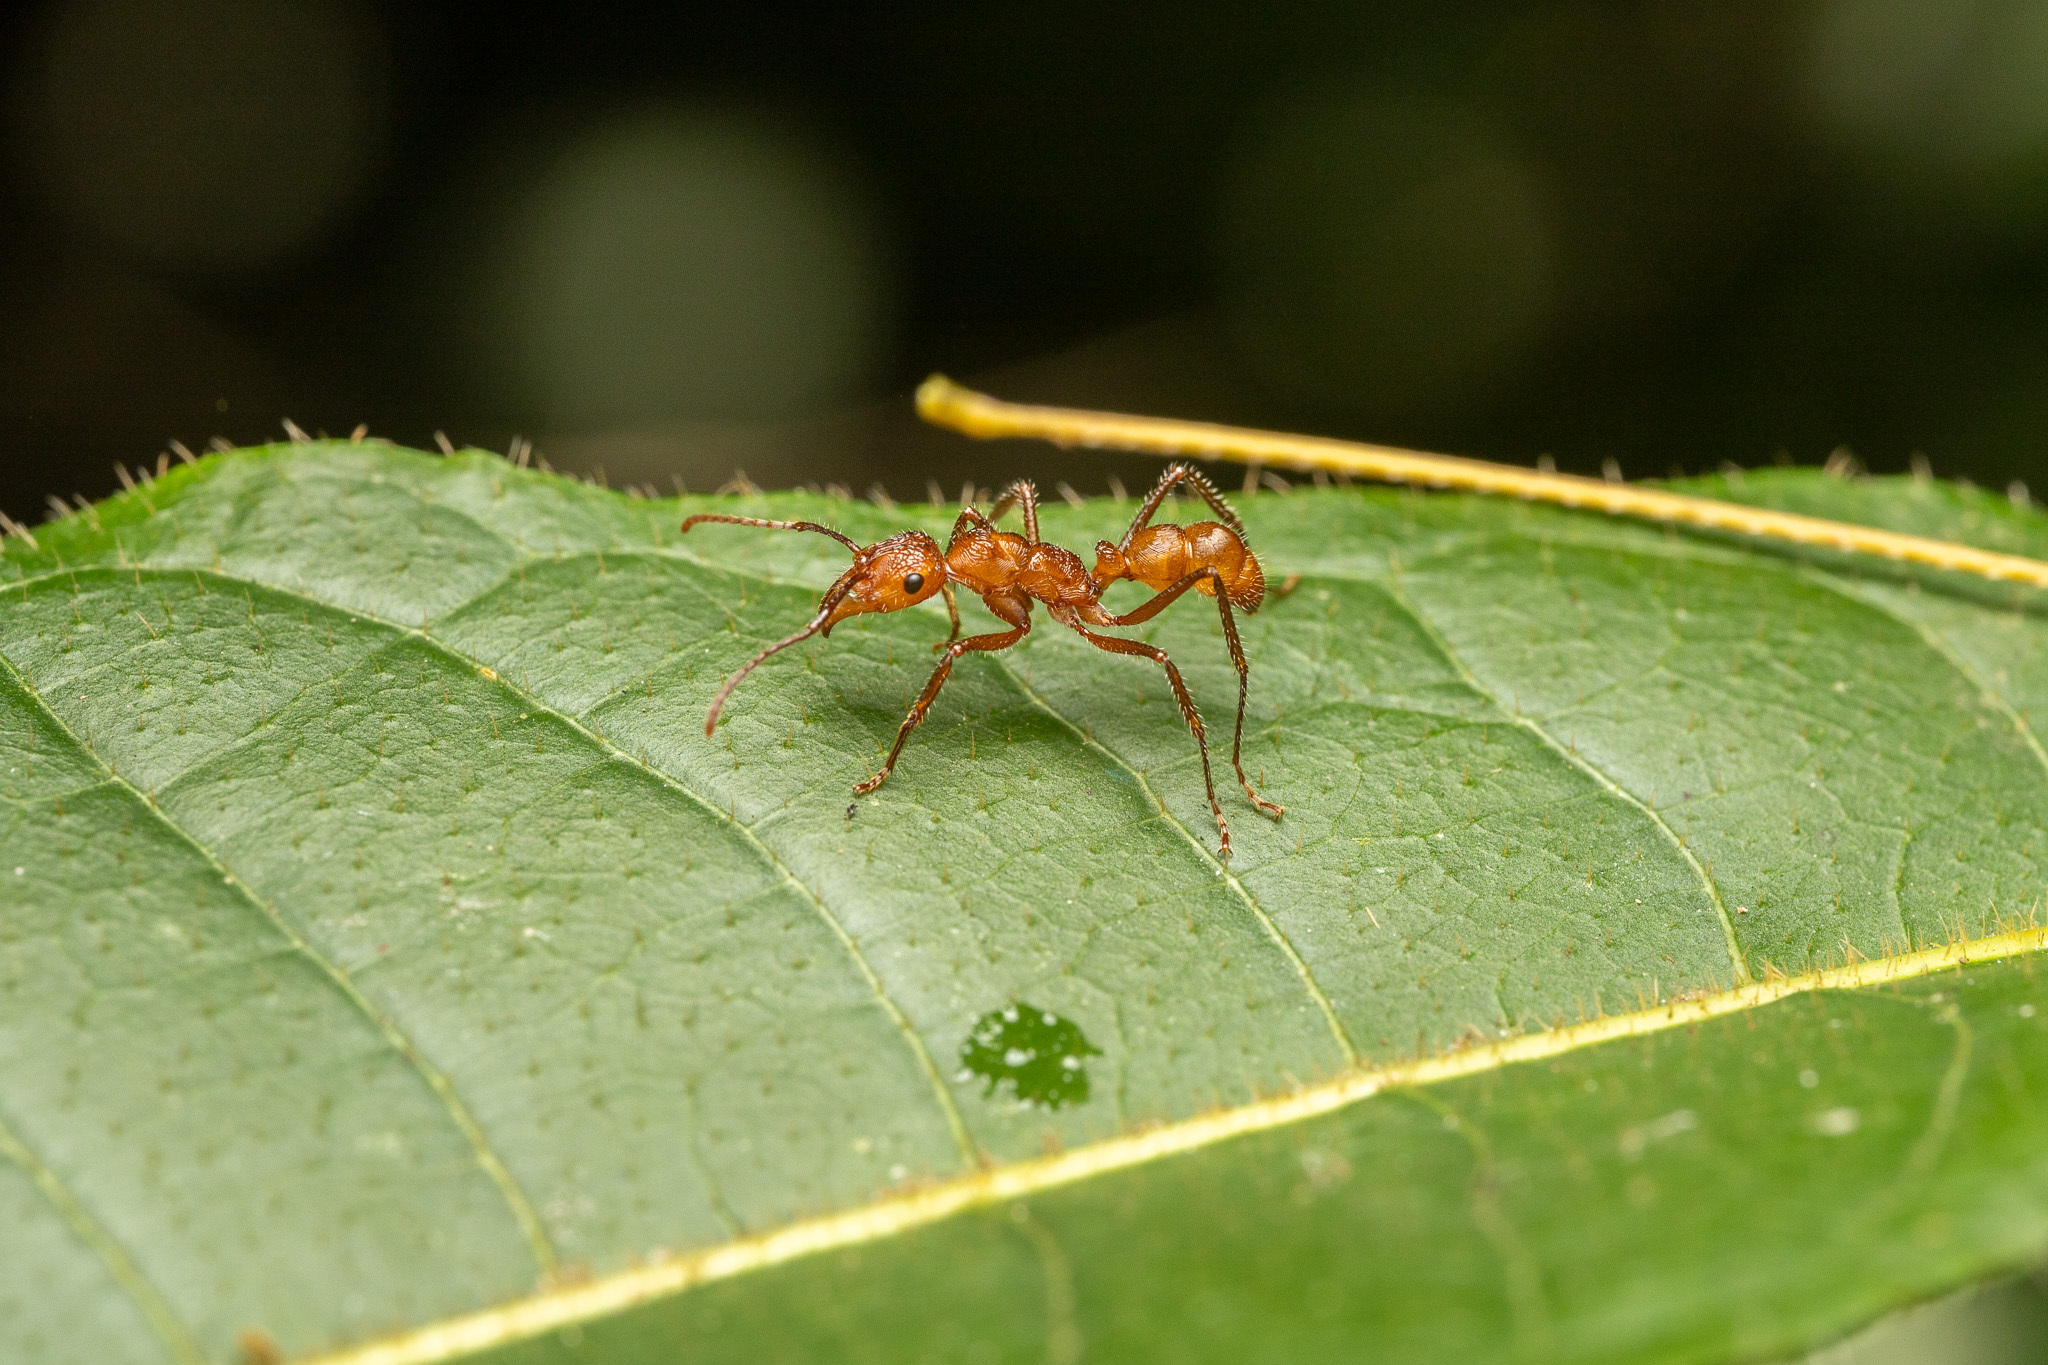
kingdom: Animalia
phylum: Arthropoda
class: Insecta
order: Hymenoptera
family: Formicidae
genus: Ectatomma
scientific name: Ectatomma tuberculatum
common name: Ant
